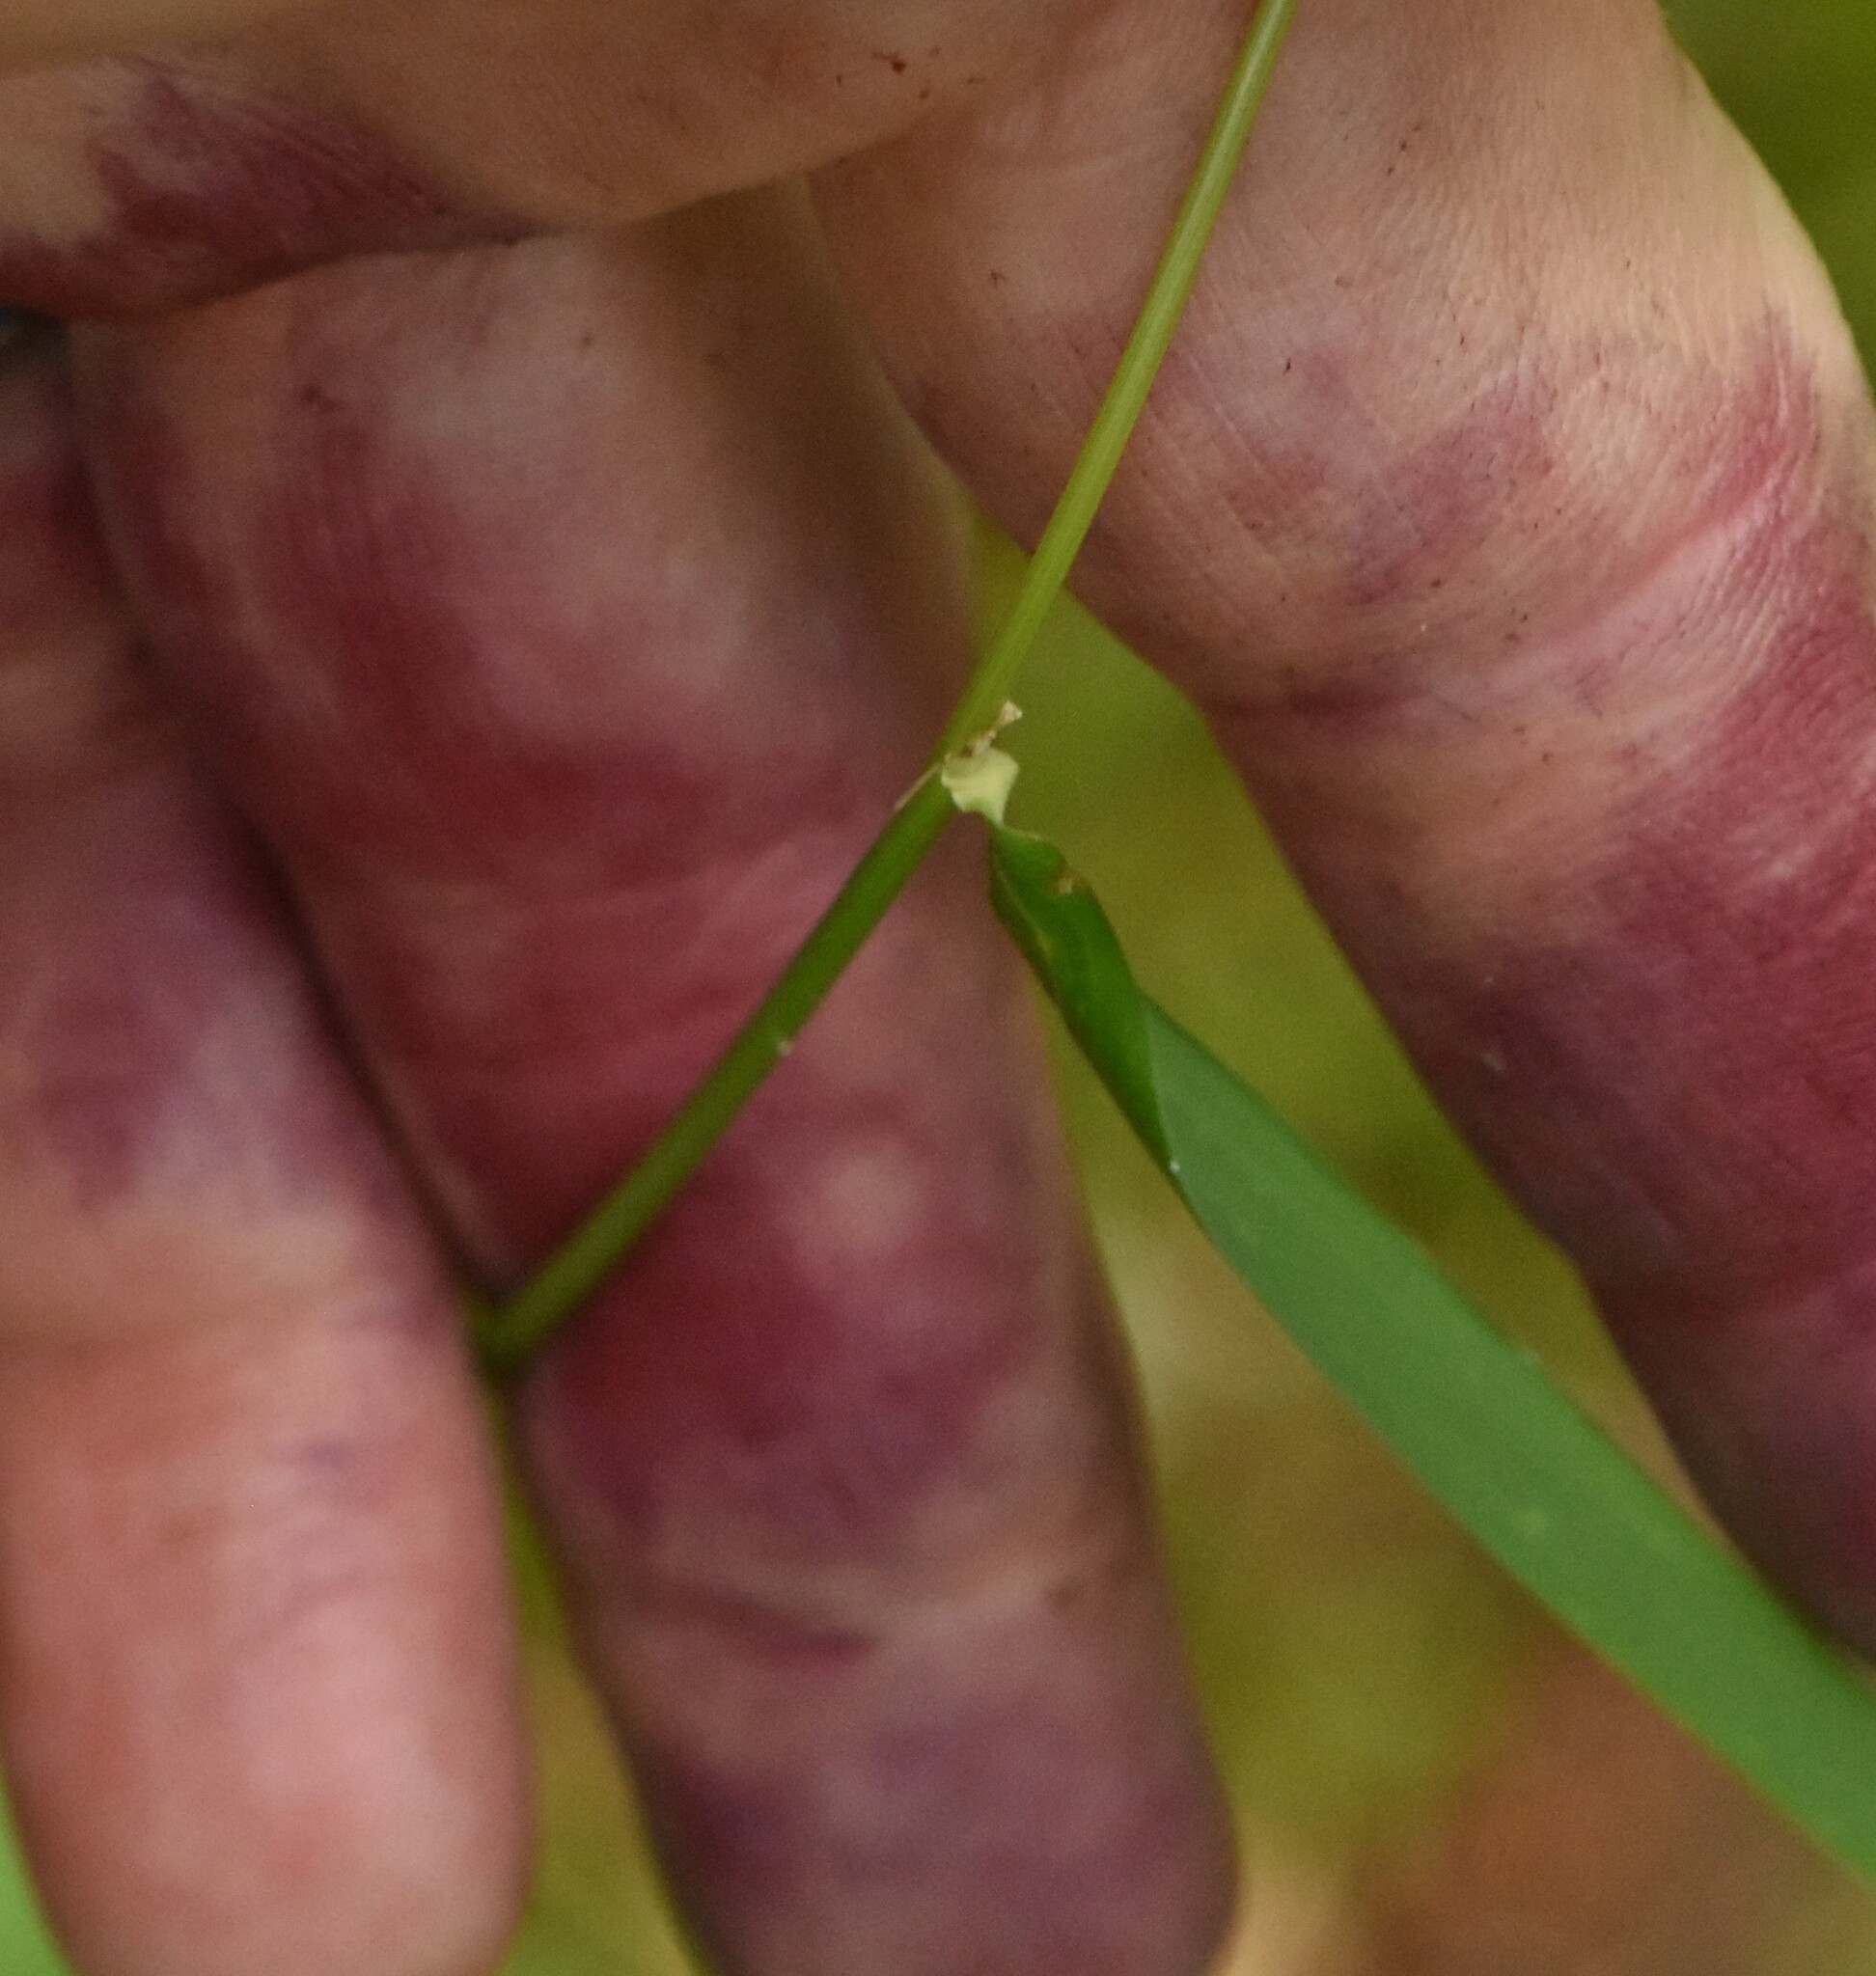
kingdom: Plantae
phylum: Tracheophyta
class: Liliopsida
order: Poales
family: Poaceae
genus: Calamagrostis
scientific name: Calamagrostis arundinacea
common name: Metskastik
